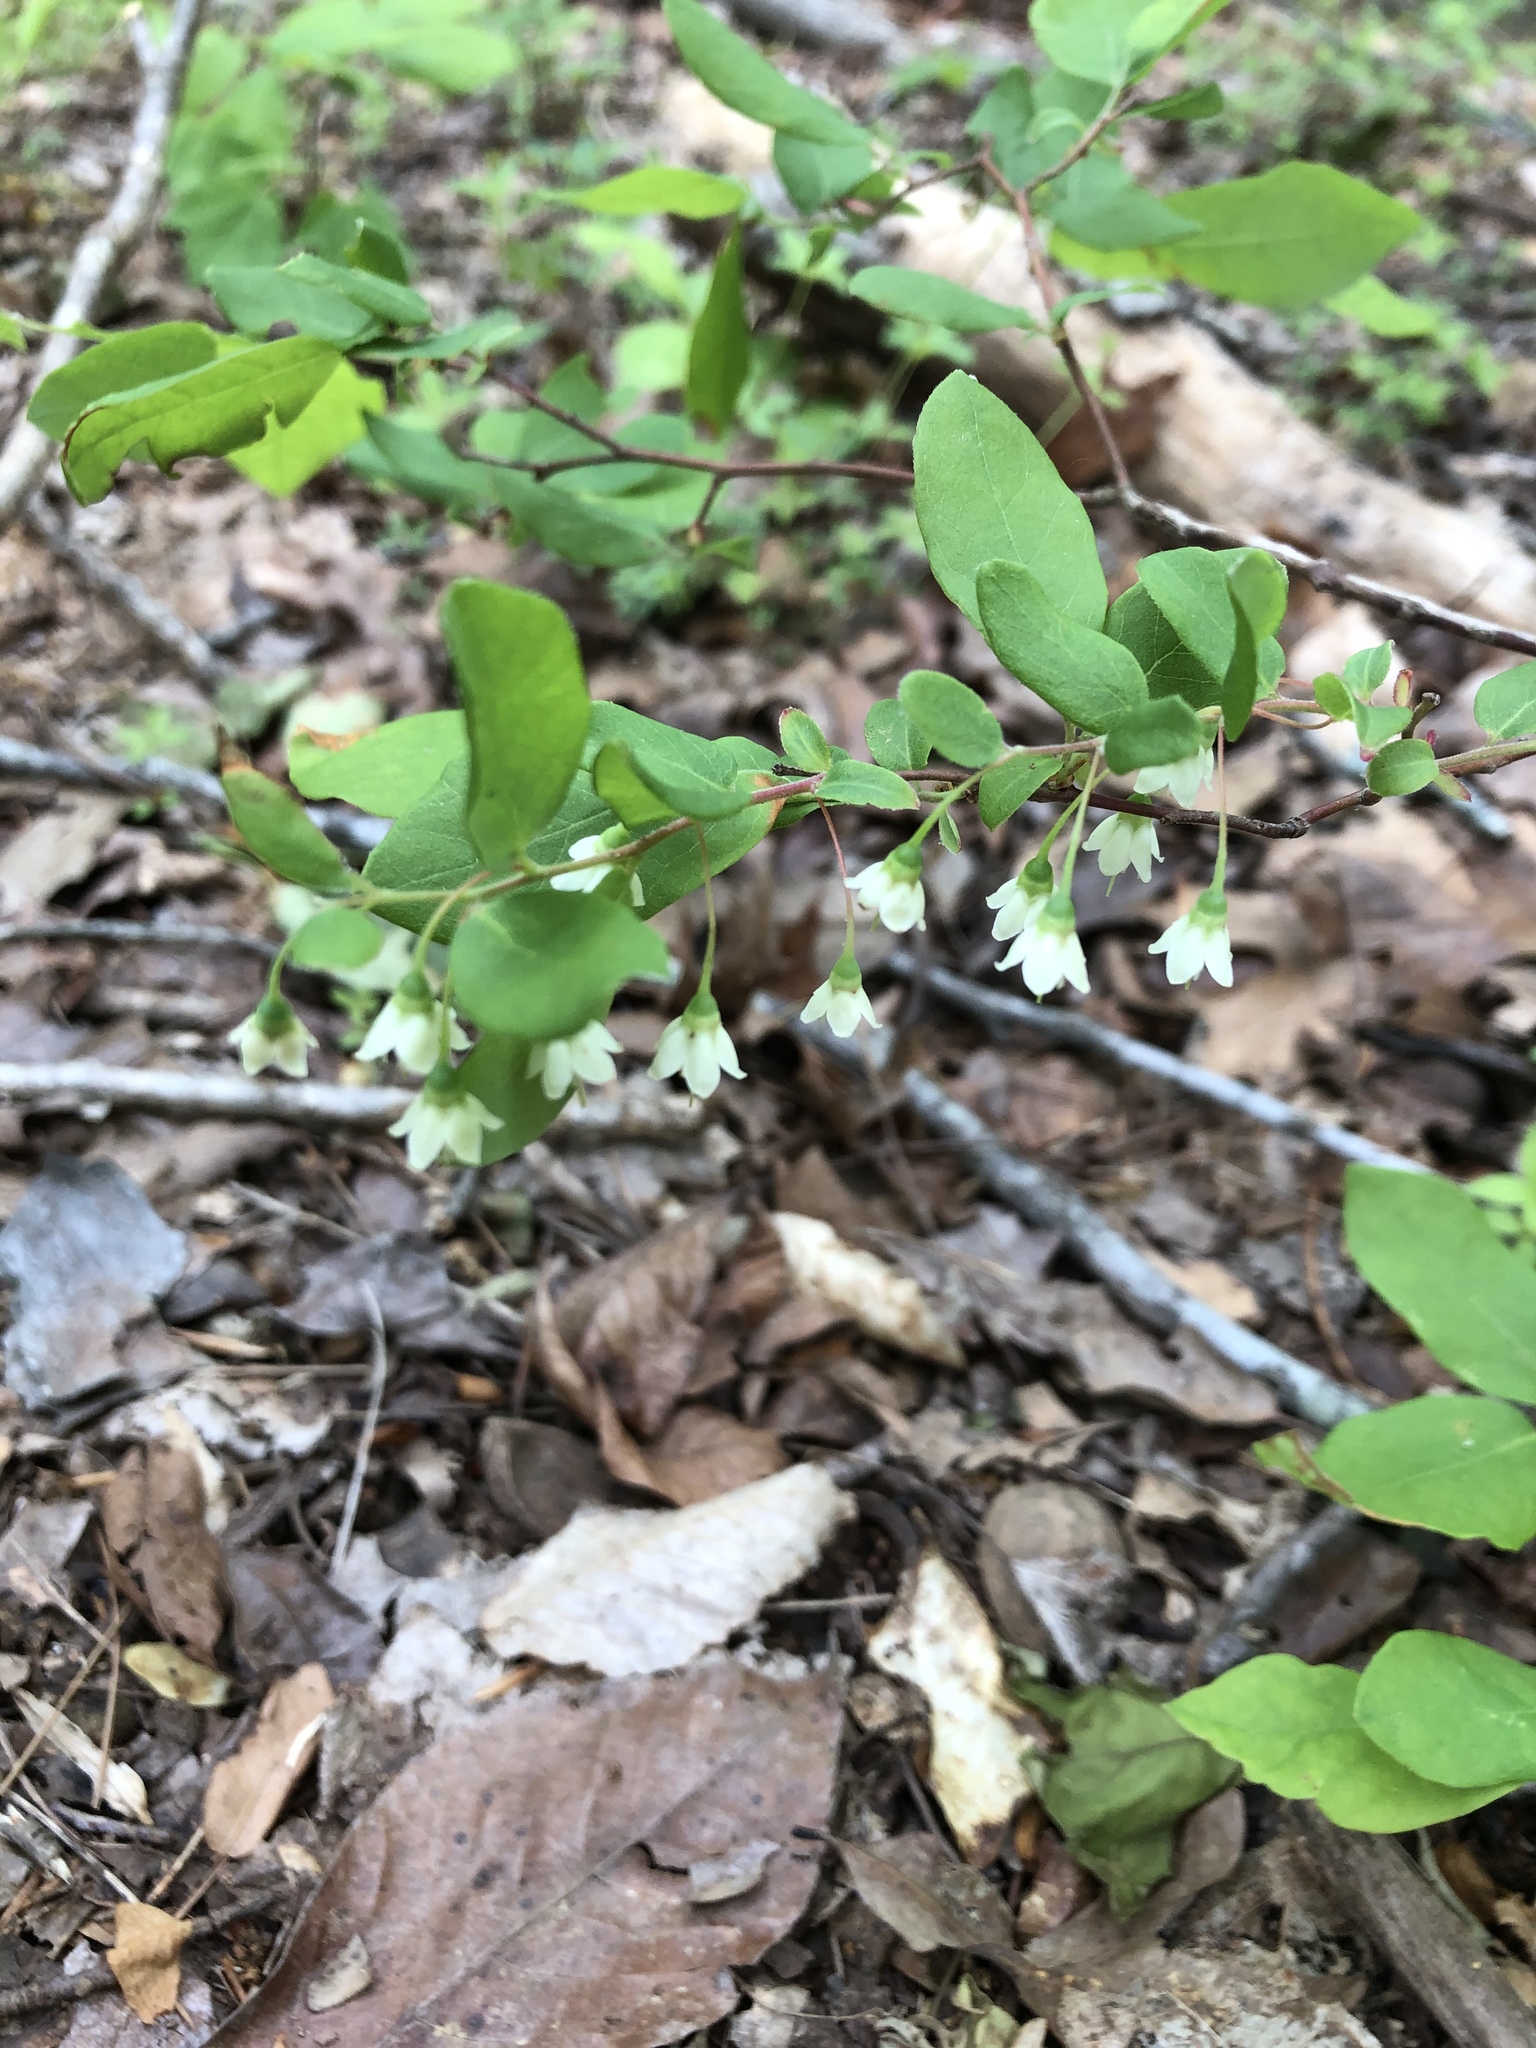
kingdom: Plantae
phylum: Tracheophyta
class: Magnoliopsida
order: Ericales
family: Ericaceae
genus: Vaccinium
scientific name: Vaccinium stamineum
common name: Deerberry
